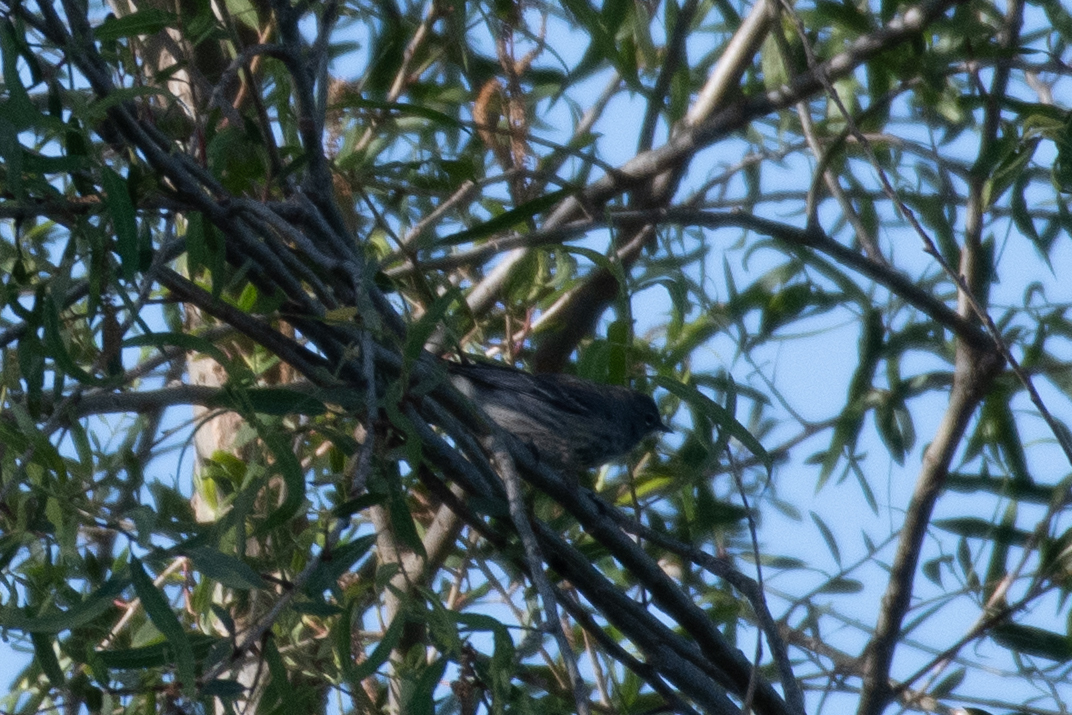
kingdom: Animalia
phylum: Chordata
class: Aves
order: Passeriformes
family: Parulidae
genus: Setophaga
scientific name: Setophaga coronata
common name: Myrtle warbler
